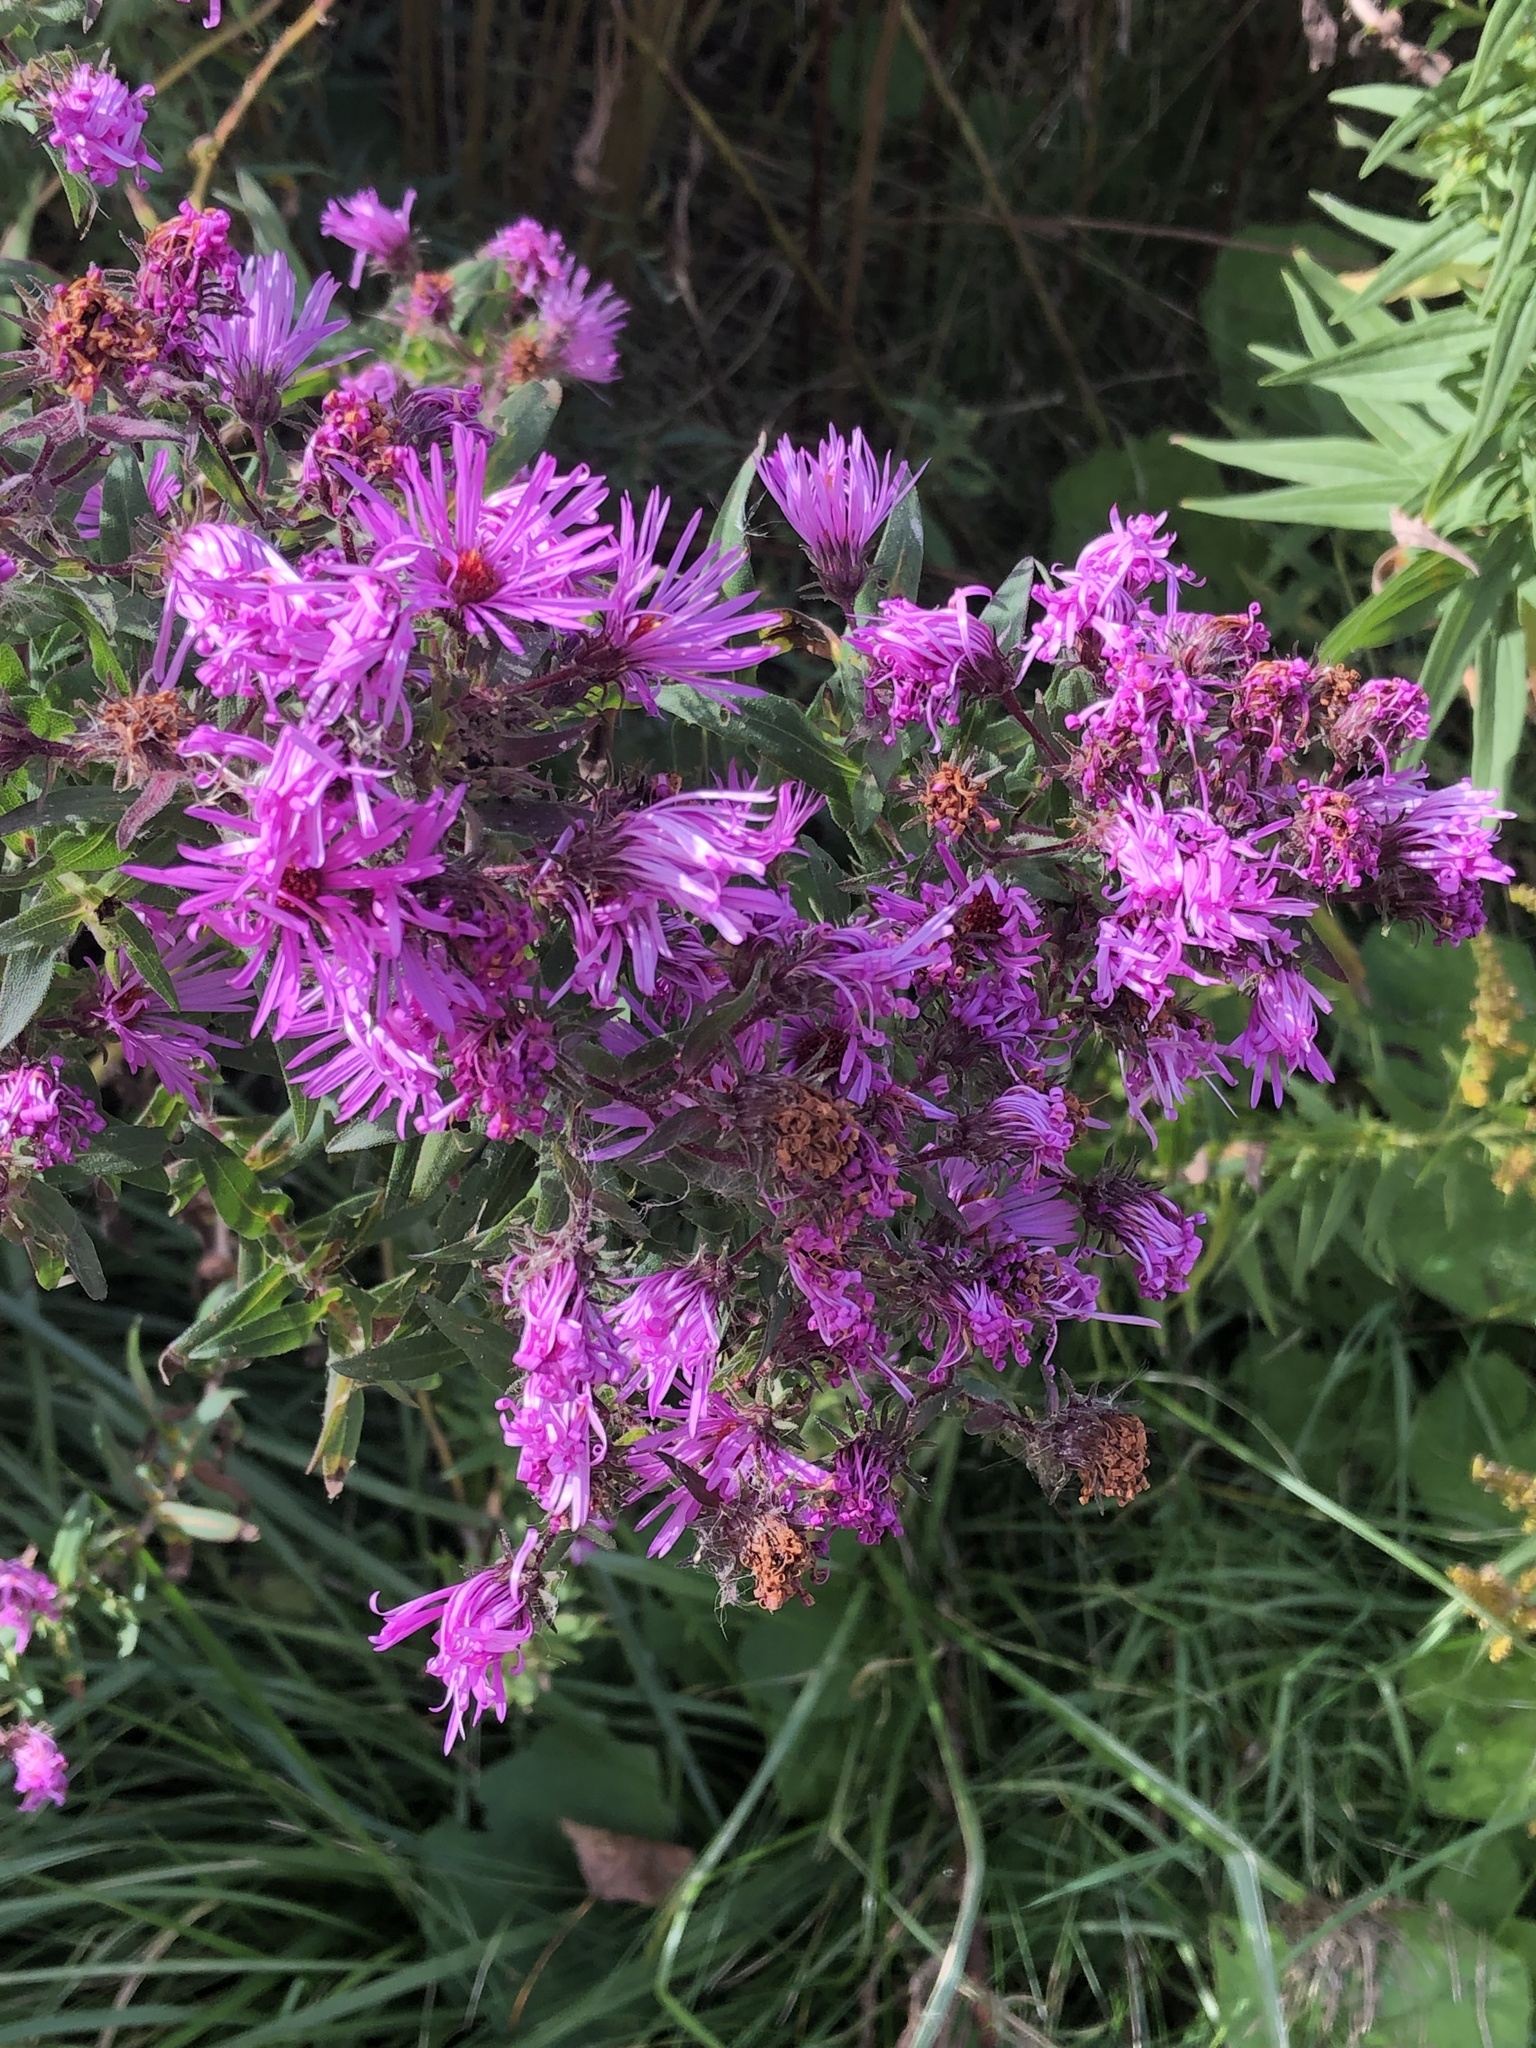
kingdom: Plantae
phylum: Tracheophyta
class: Magnoliopsida
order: Asterales
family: Asteraceae
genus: Symphyotrichum
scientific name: Symphyotrichum novae-angliae
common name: Michaelmas daisy
